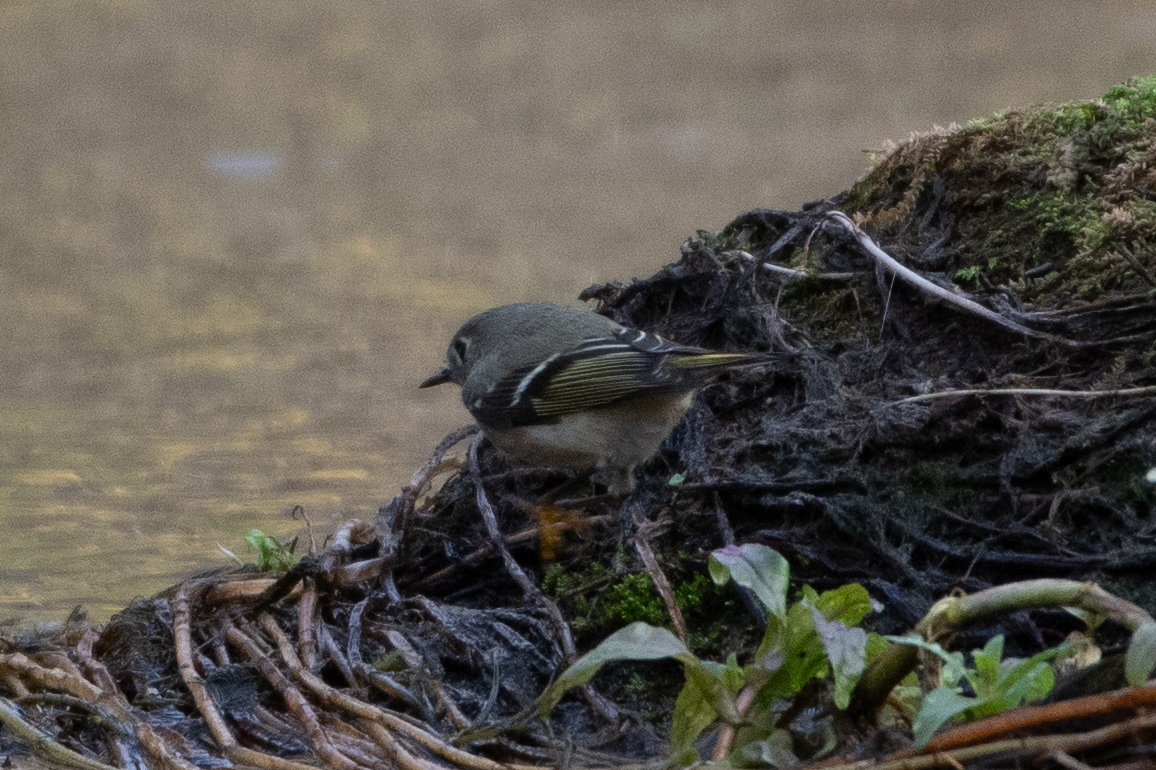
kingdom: Animalia
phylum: Chordata
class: Aves
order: Passeriformes
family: Regulidae
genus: Regulus
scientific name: Regulus calendula
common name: Ruby-crowned kinglet
